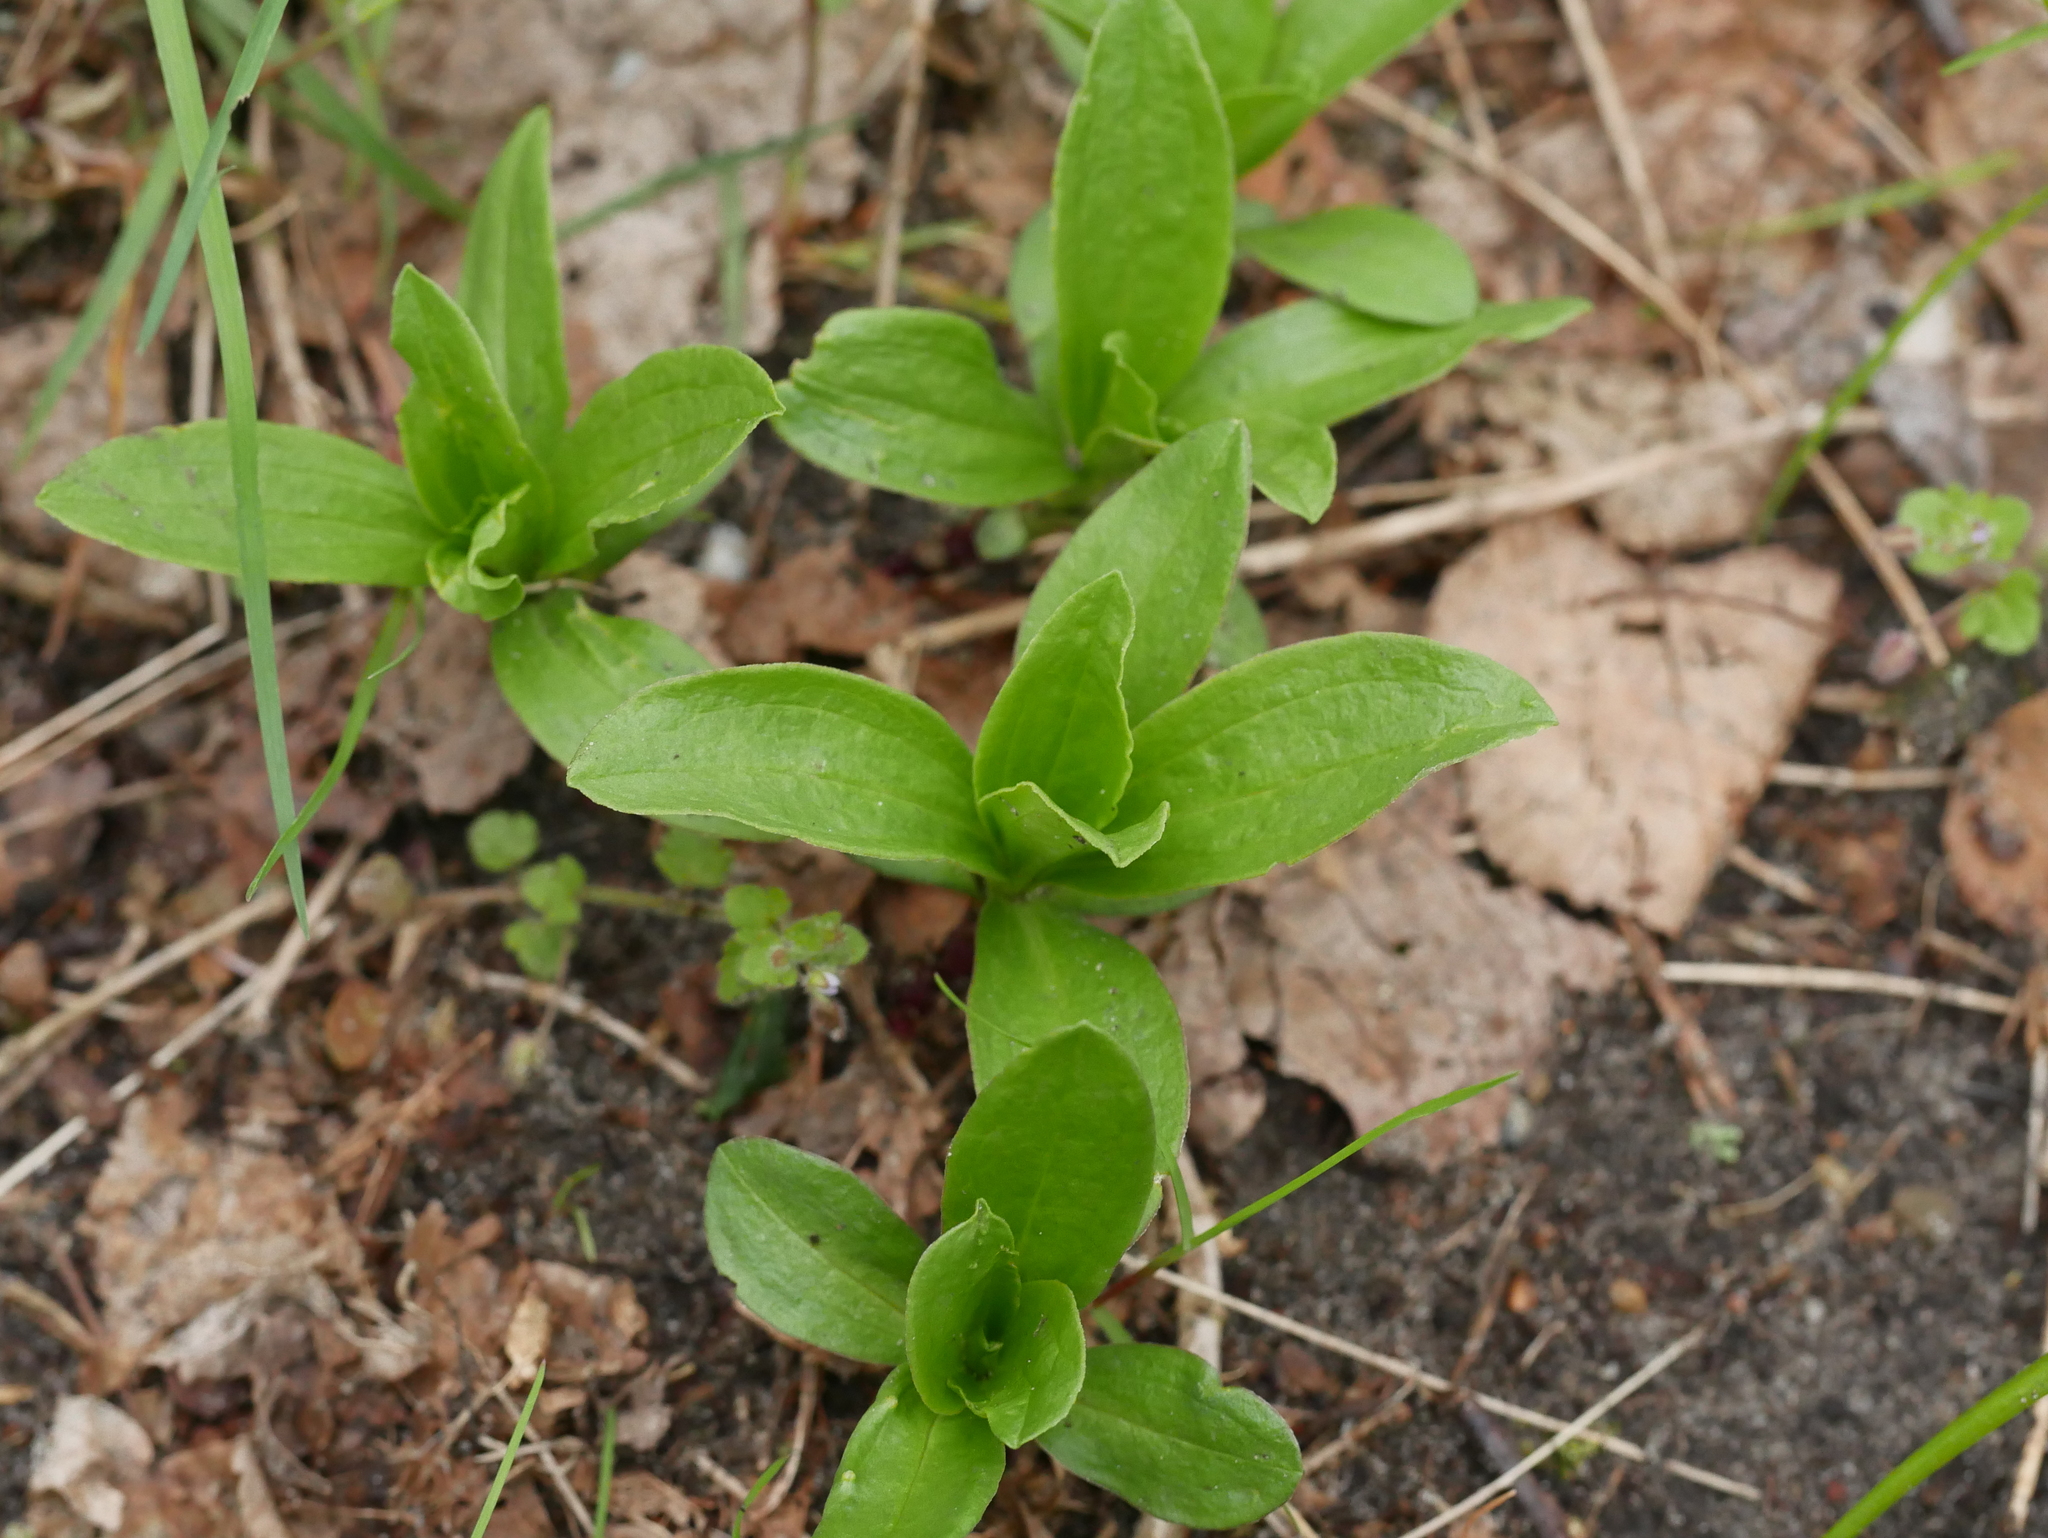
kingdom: Plantae
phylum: Tracheophyta
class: Magnoliopsida
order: Caryophyllales
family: Caryophyllaceae
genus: Saponaria
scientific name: Saponaria officinalis
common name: Soapwort
